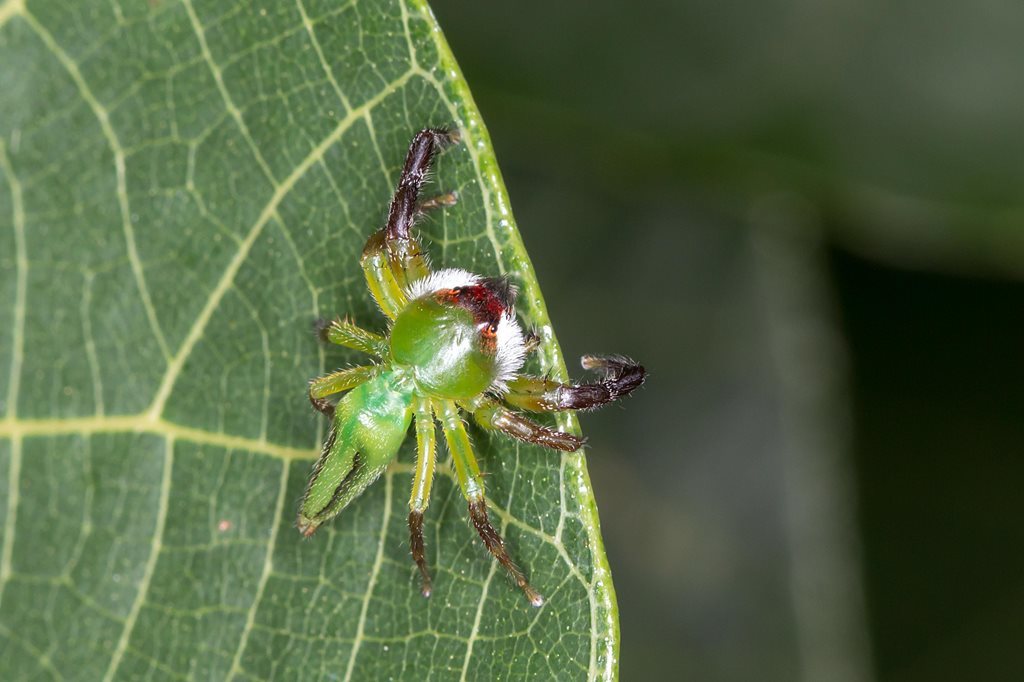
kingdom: Animalia
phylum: Arthropoda
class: Arachnida
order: Araneae
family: Salticidae
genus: Mopsus
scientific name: Mopsus mormon
